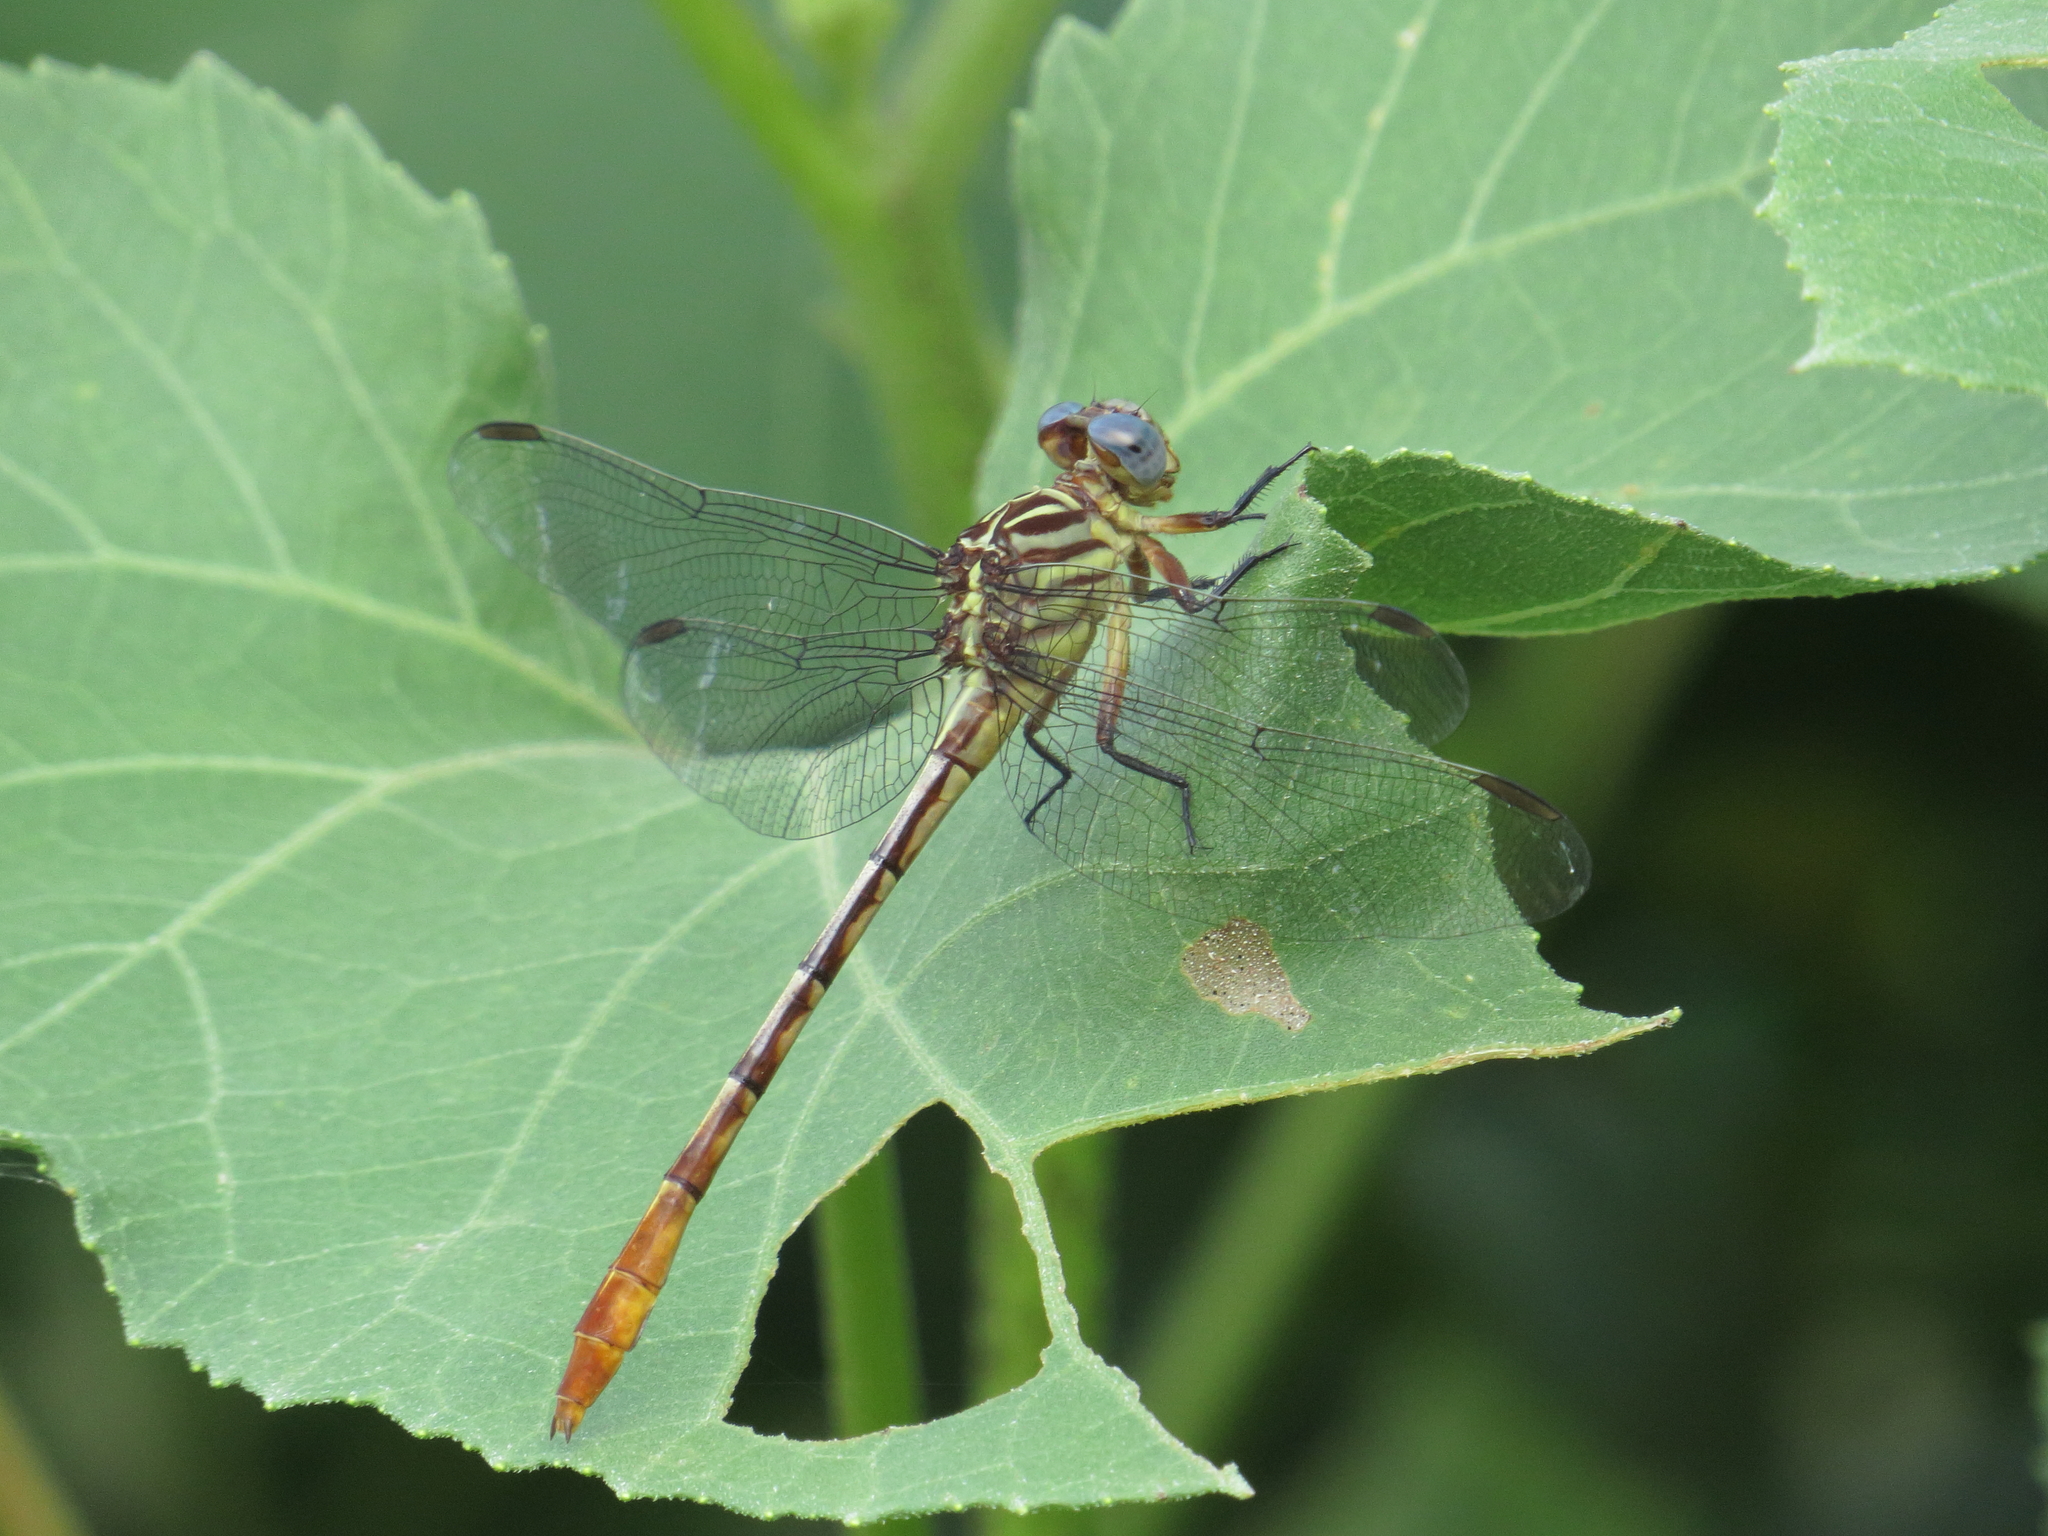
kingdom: Animalia
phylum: Arthropoda
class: Insecta
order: Odonata
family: Gomphidae
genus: Stylurus
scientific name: Stylurus plagiatus
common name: Russet-tipped clubtail
